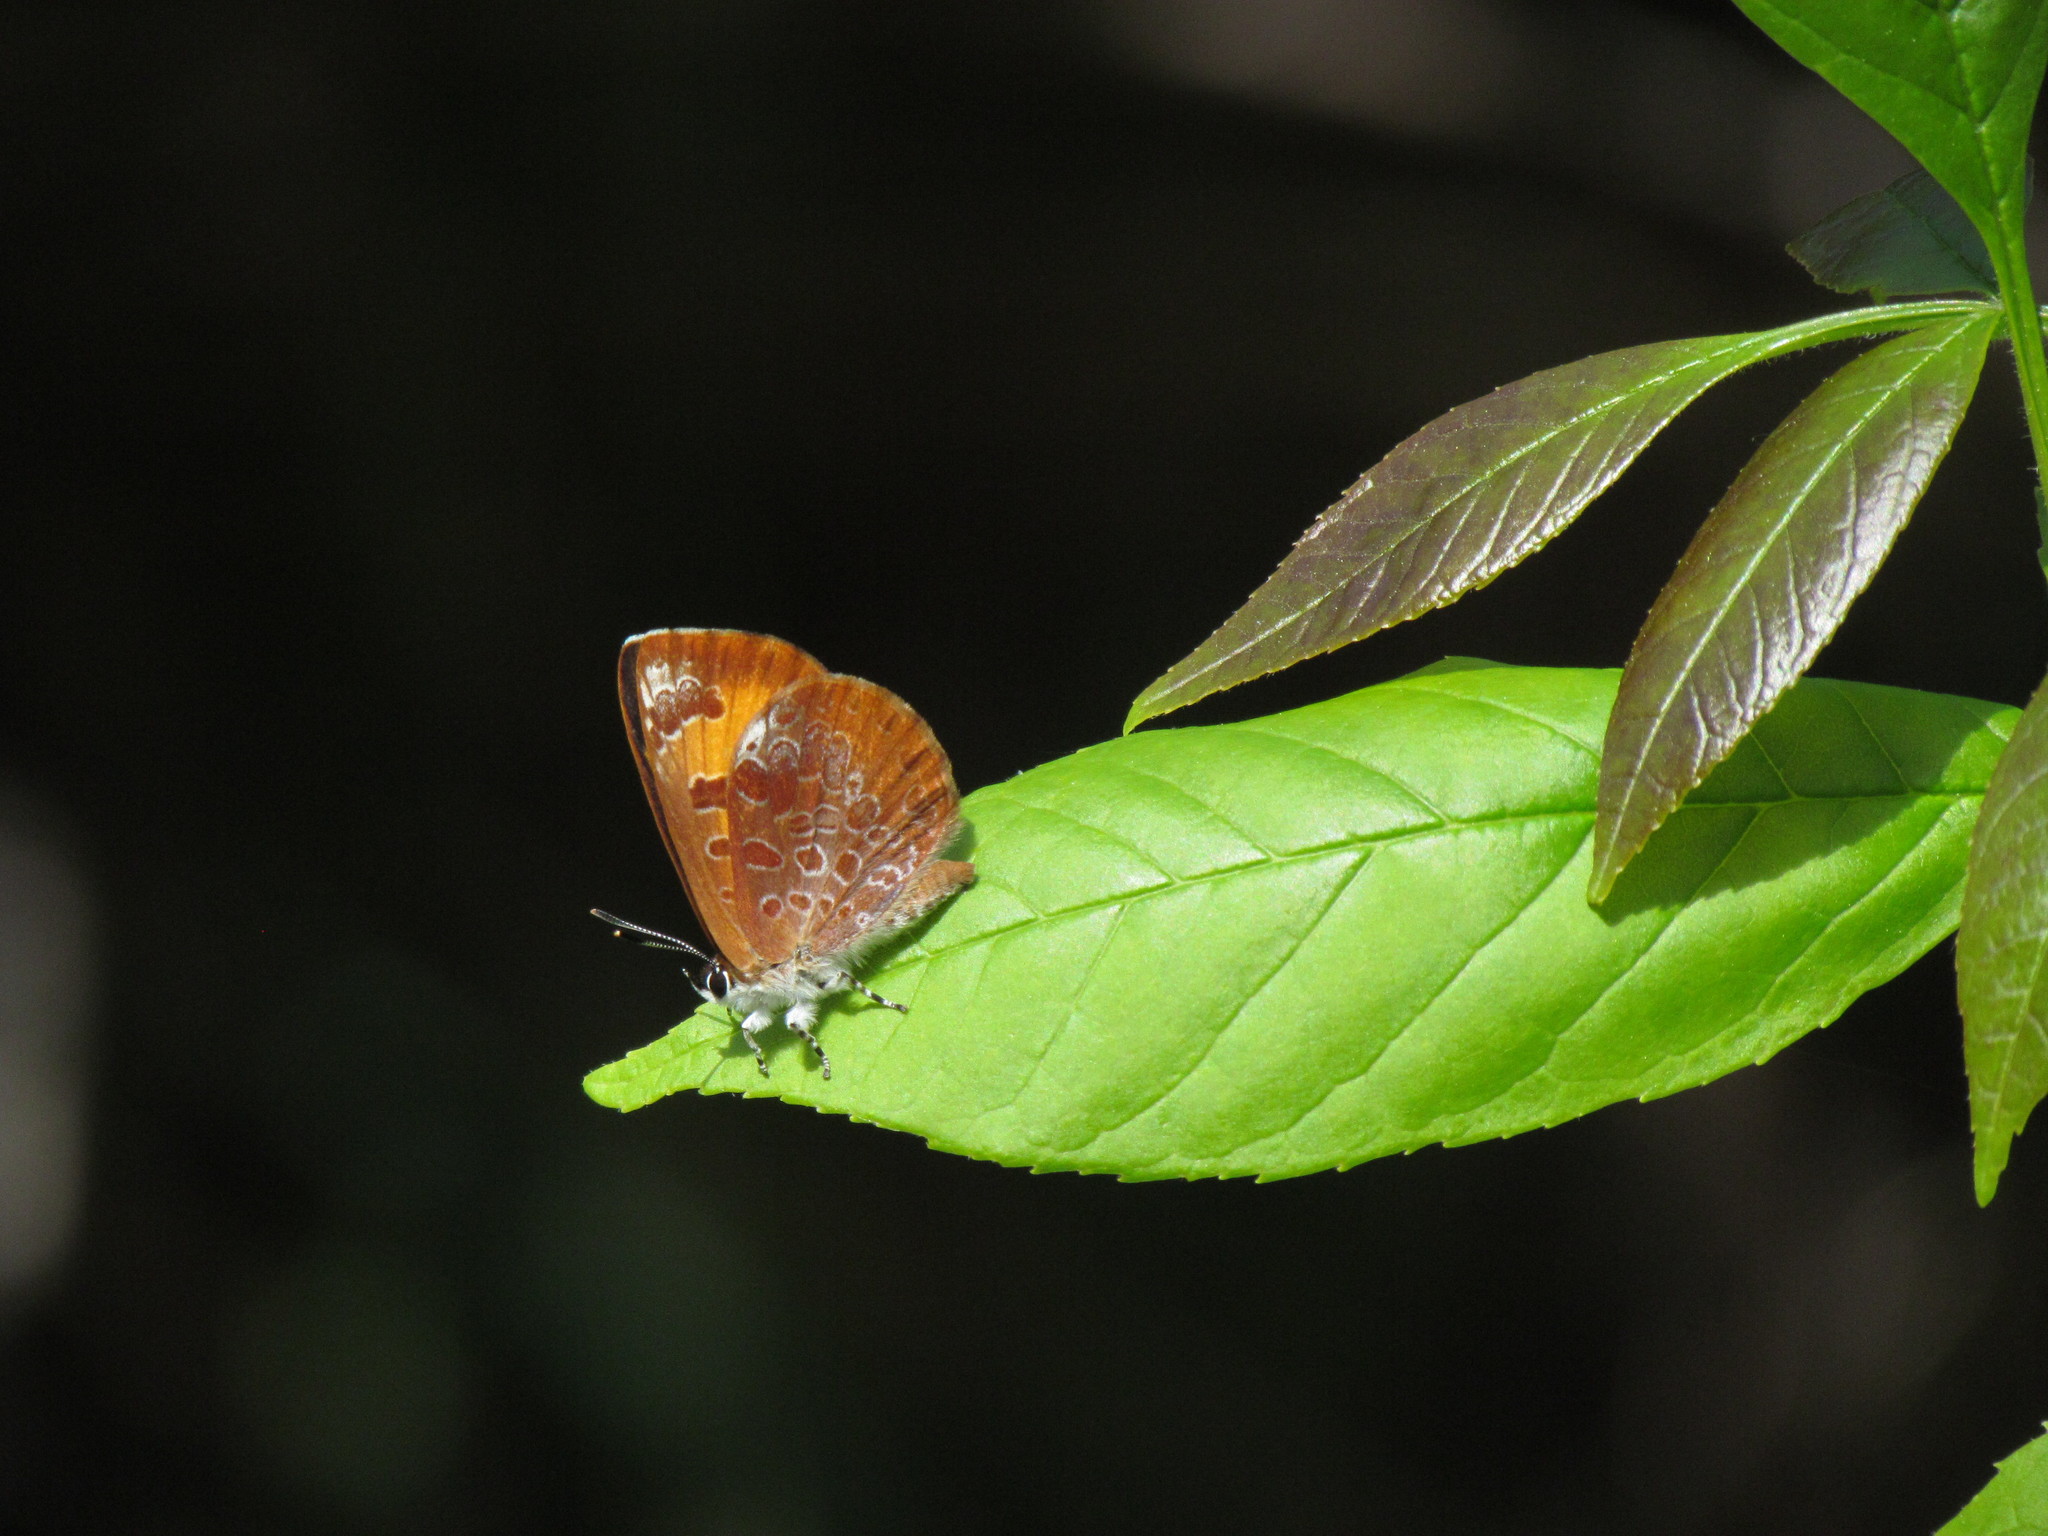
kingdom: Animalia
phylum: Arthropoda
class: Insecta
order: Lepidoptera
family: Lycaenidae
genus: Feniseca
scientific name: Feniseca tarquinius
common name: Harvester
